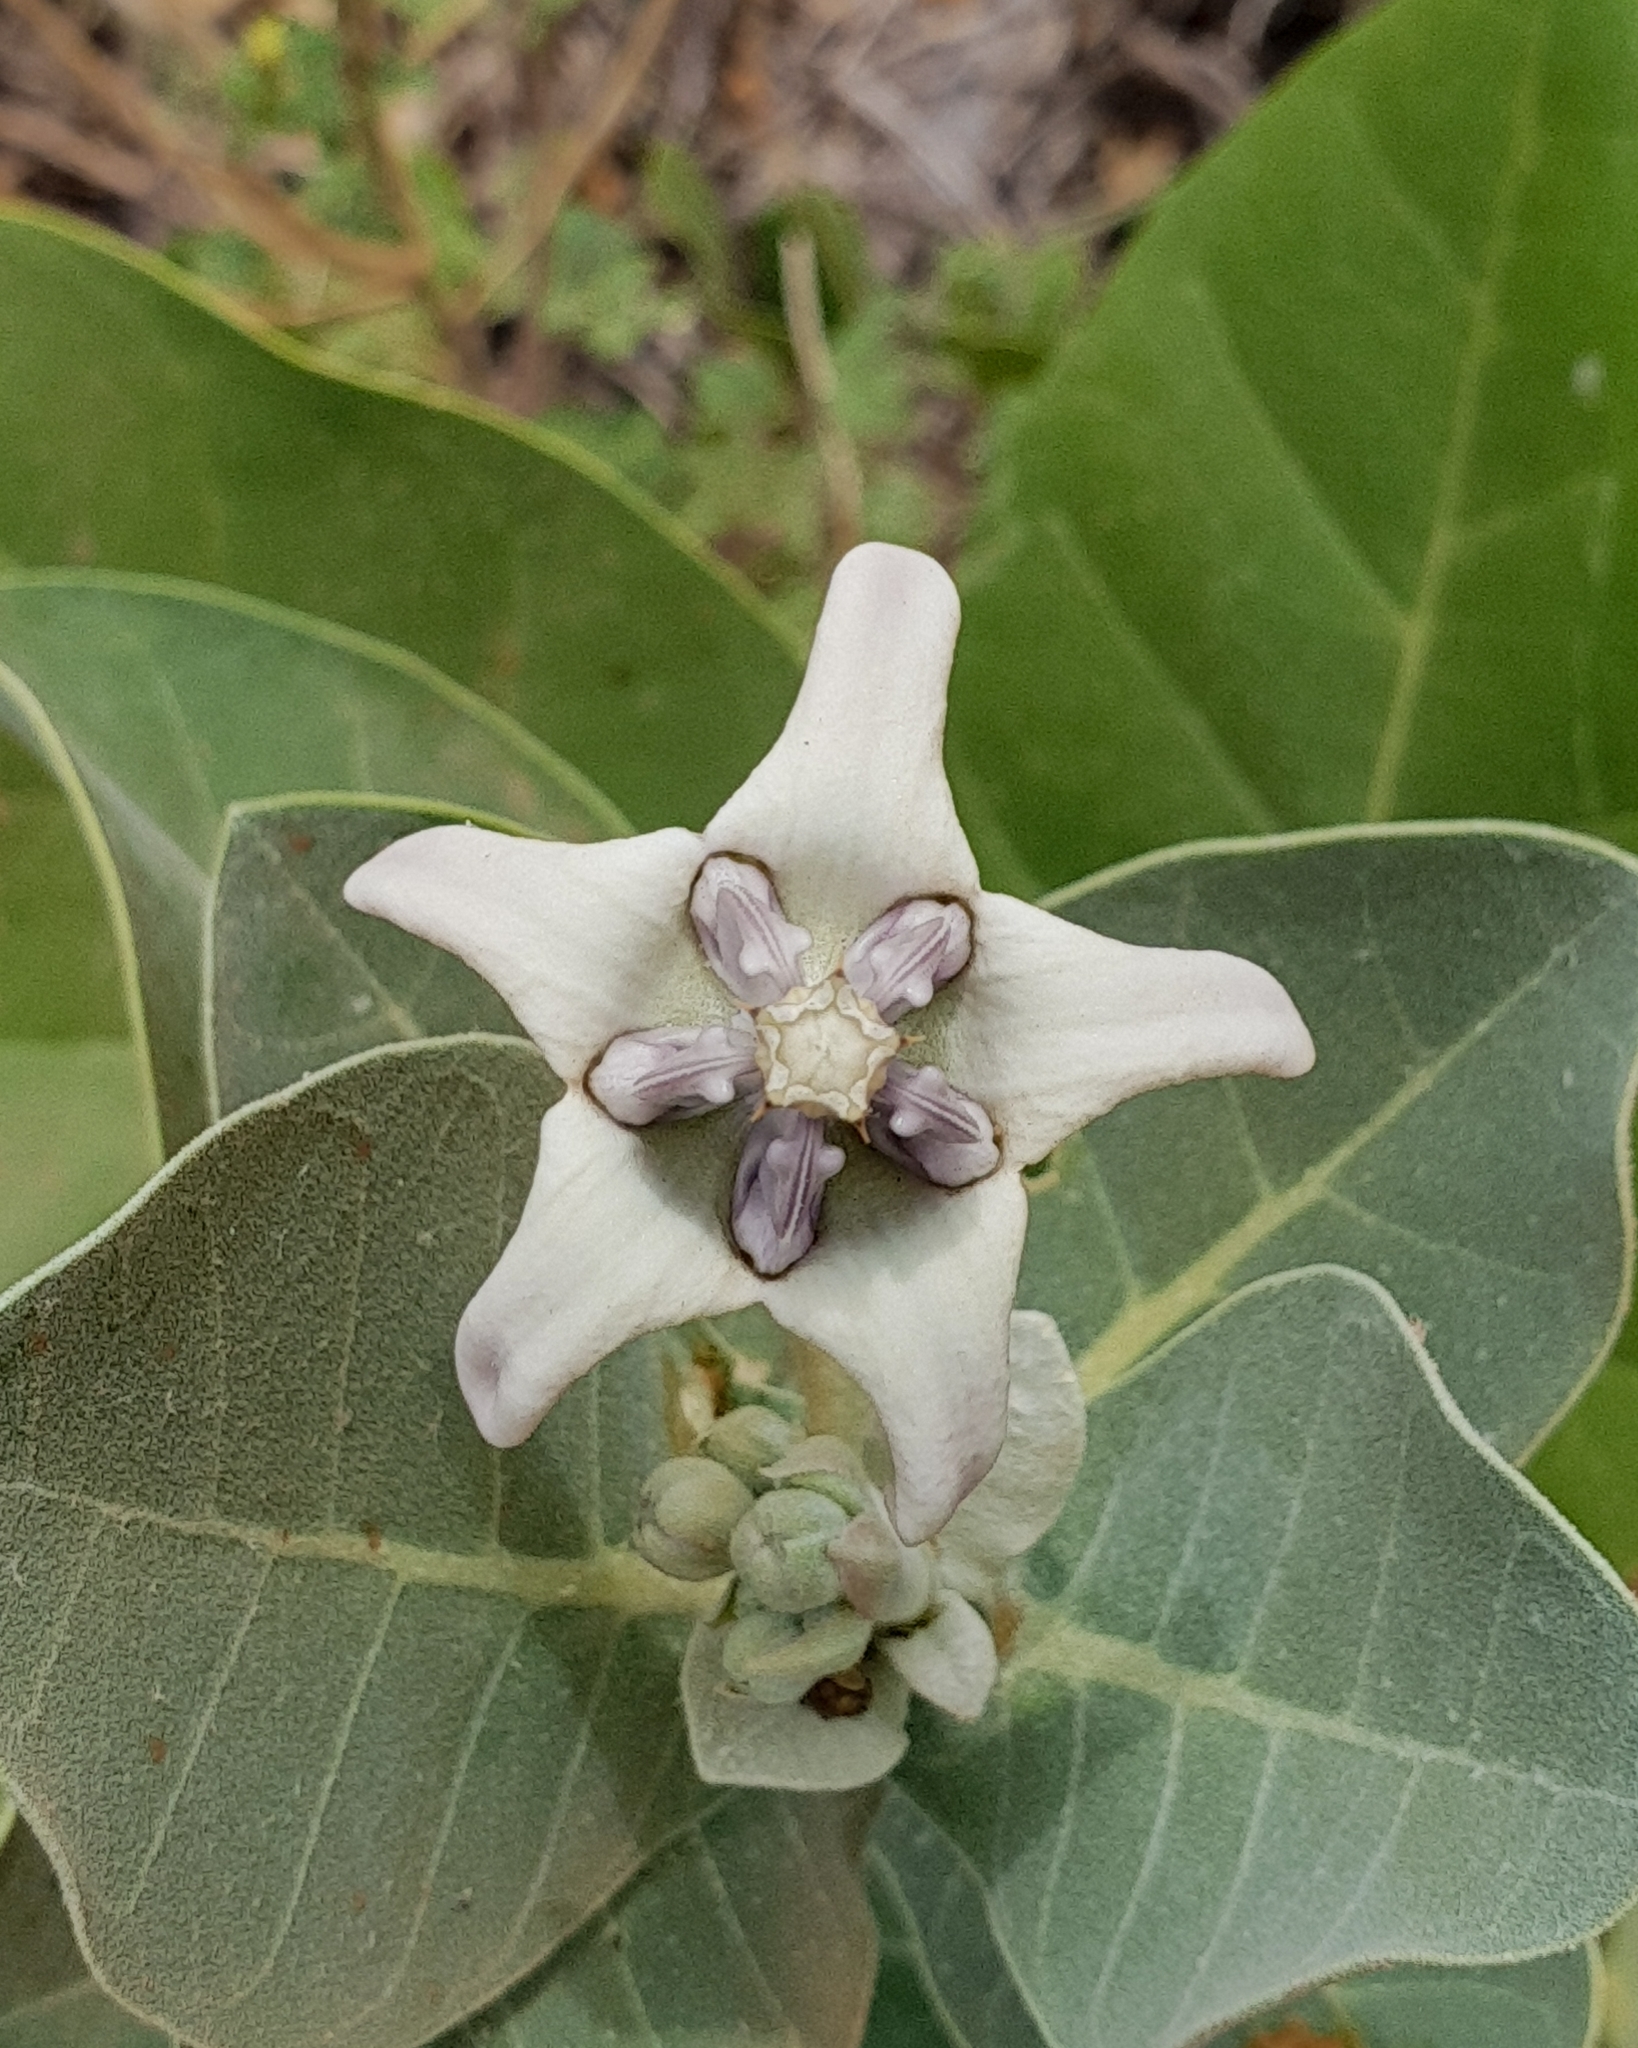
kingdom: Plantae
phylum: Tracheophyta
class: Magnoliopsida
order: Gentianales
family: Apocynaceae
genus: Calotropis
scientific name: Calotropis gigantea
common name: Crown flower
